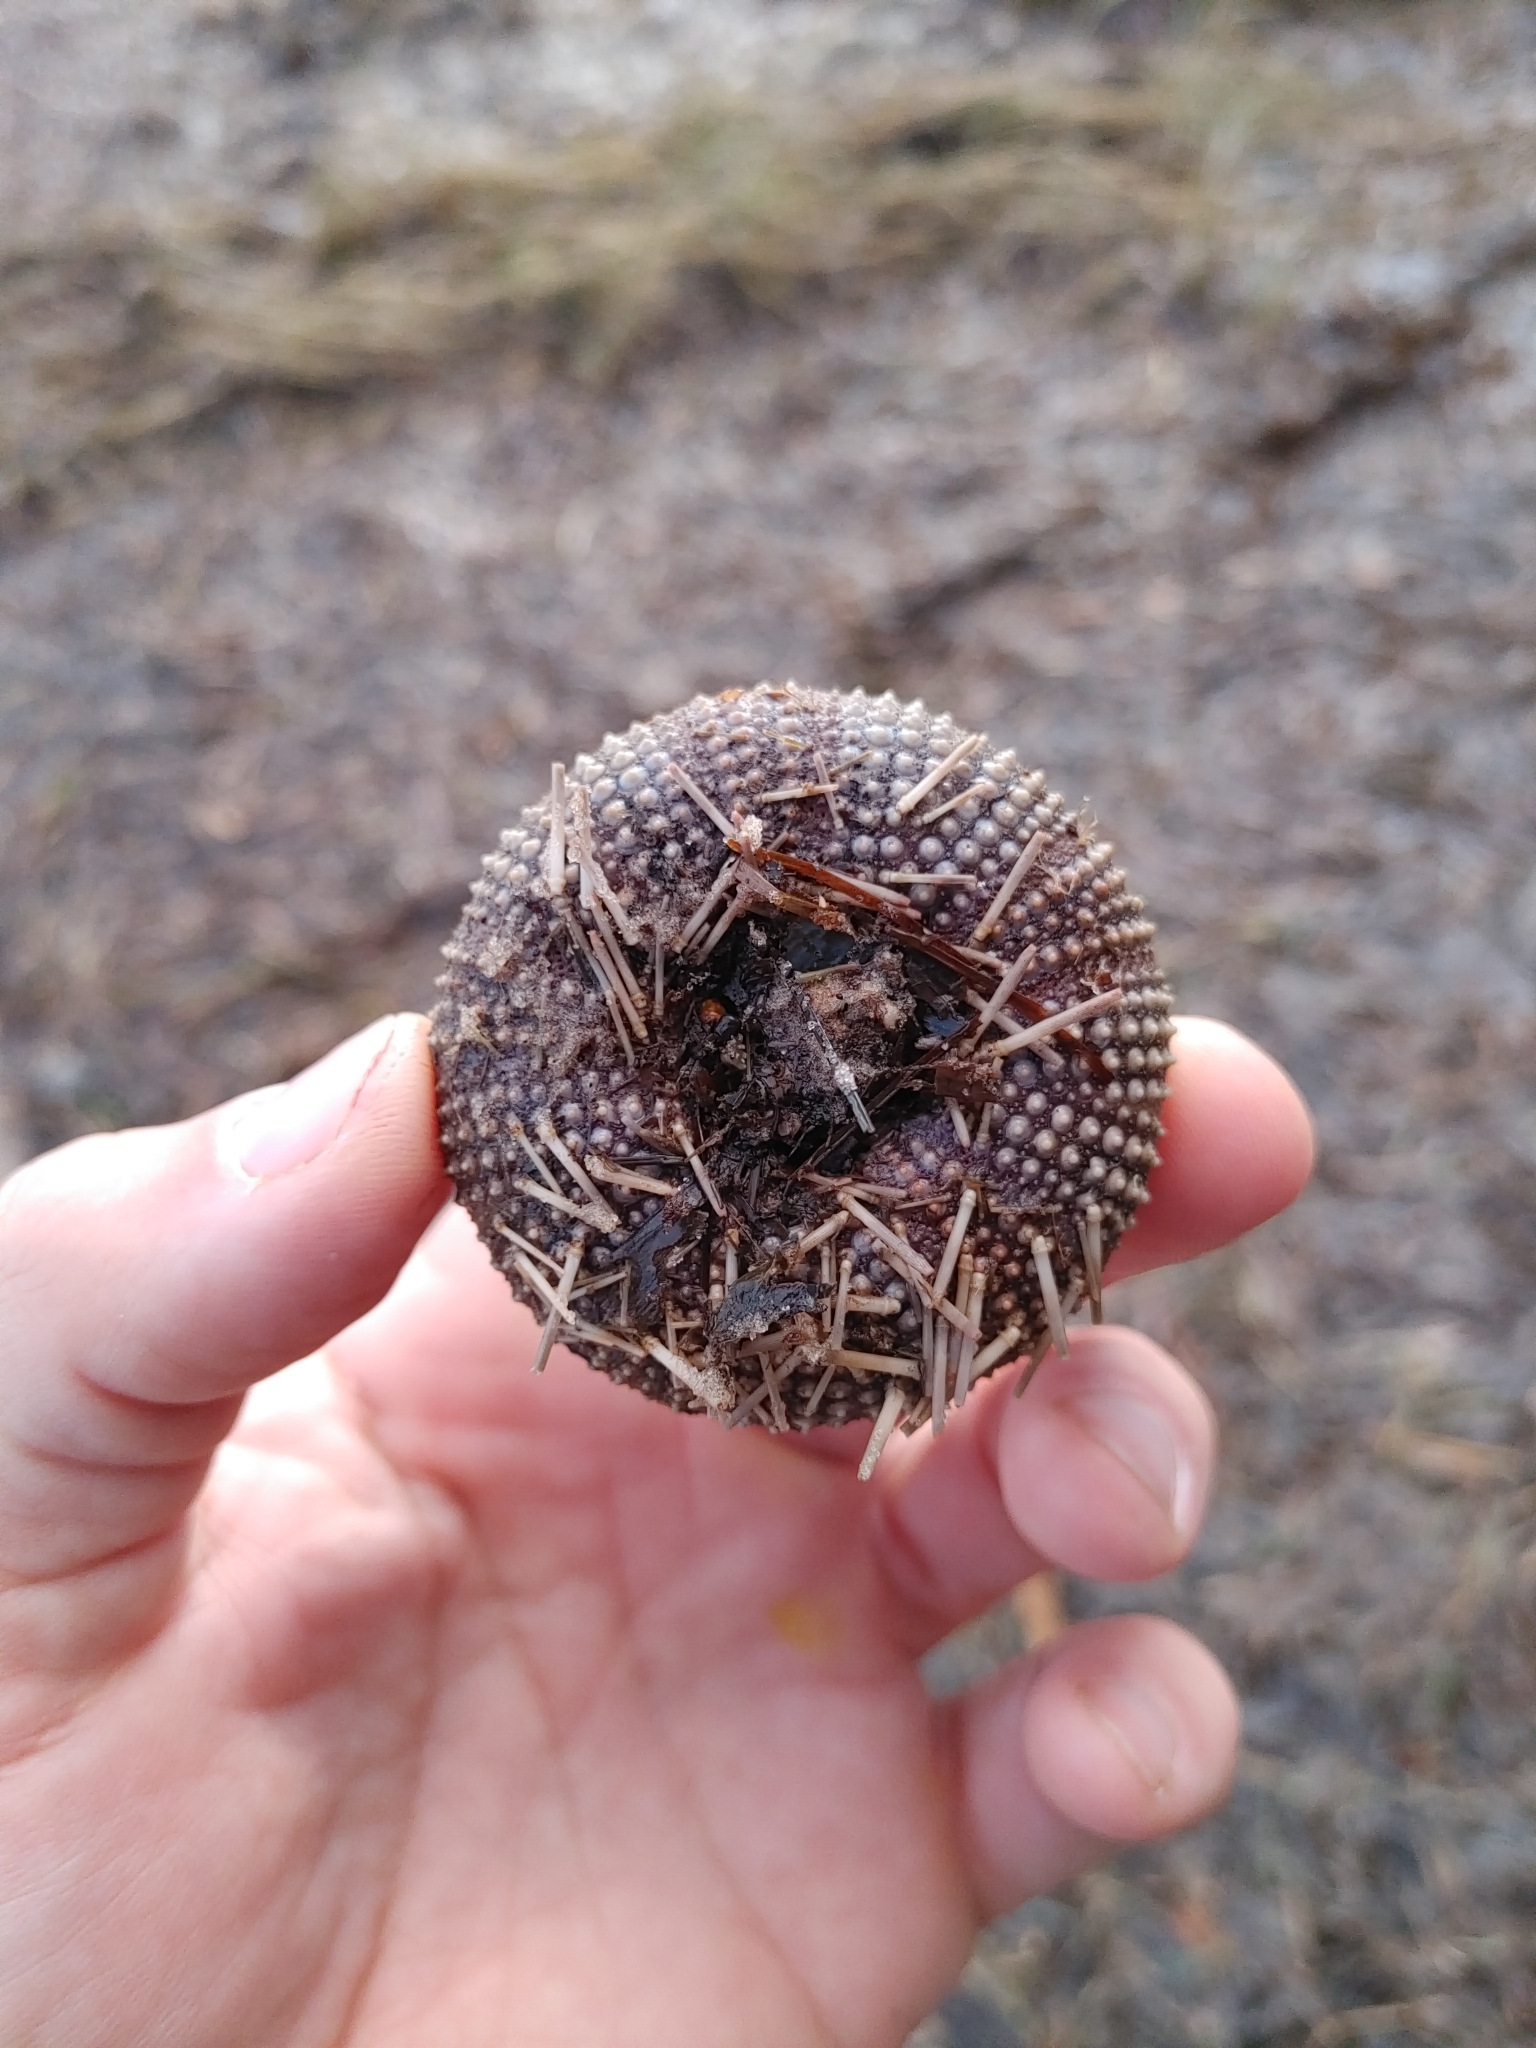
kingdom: Animalia
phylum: Echinodermata
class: Echinoidea
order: Camarodonta
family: Toxopneustidae
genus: Lytechinus
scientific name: Lytechinus variegatus
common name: Variegated urchin
